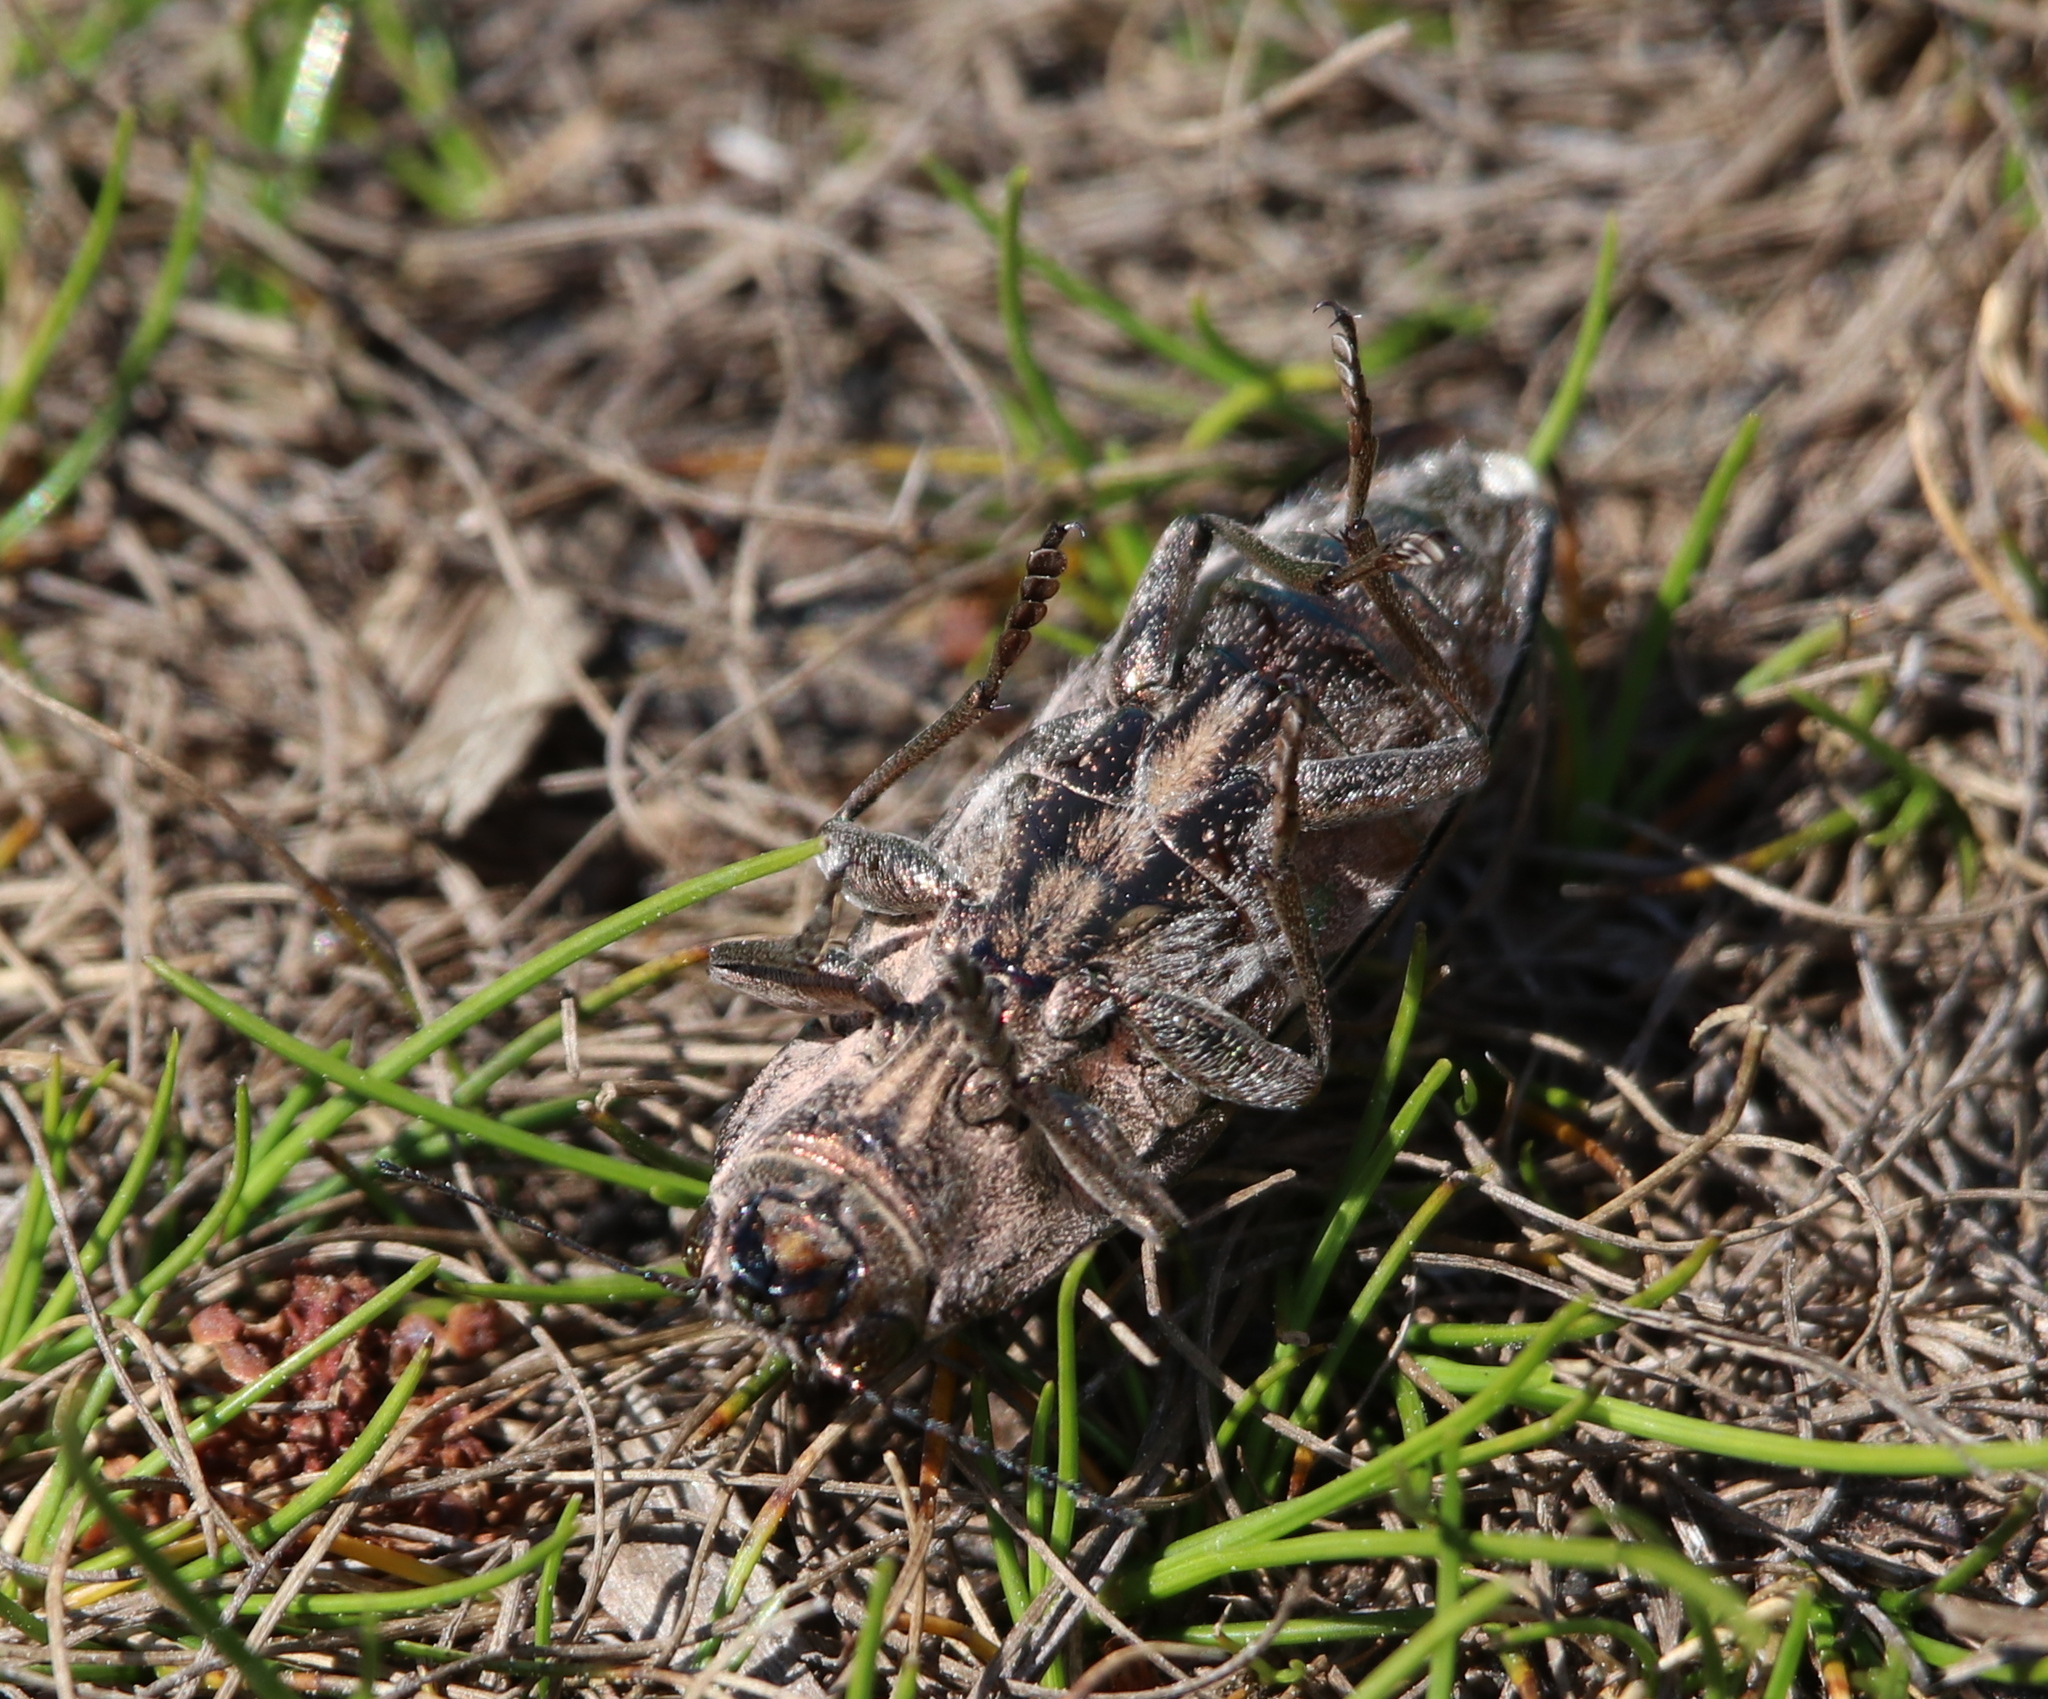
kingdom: Animalia
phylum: Arthropoda
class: Insecta
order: Coleoptera
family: Buprestidae
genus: Chalcophora
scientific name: Chalcophora georgiana
